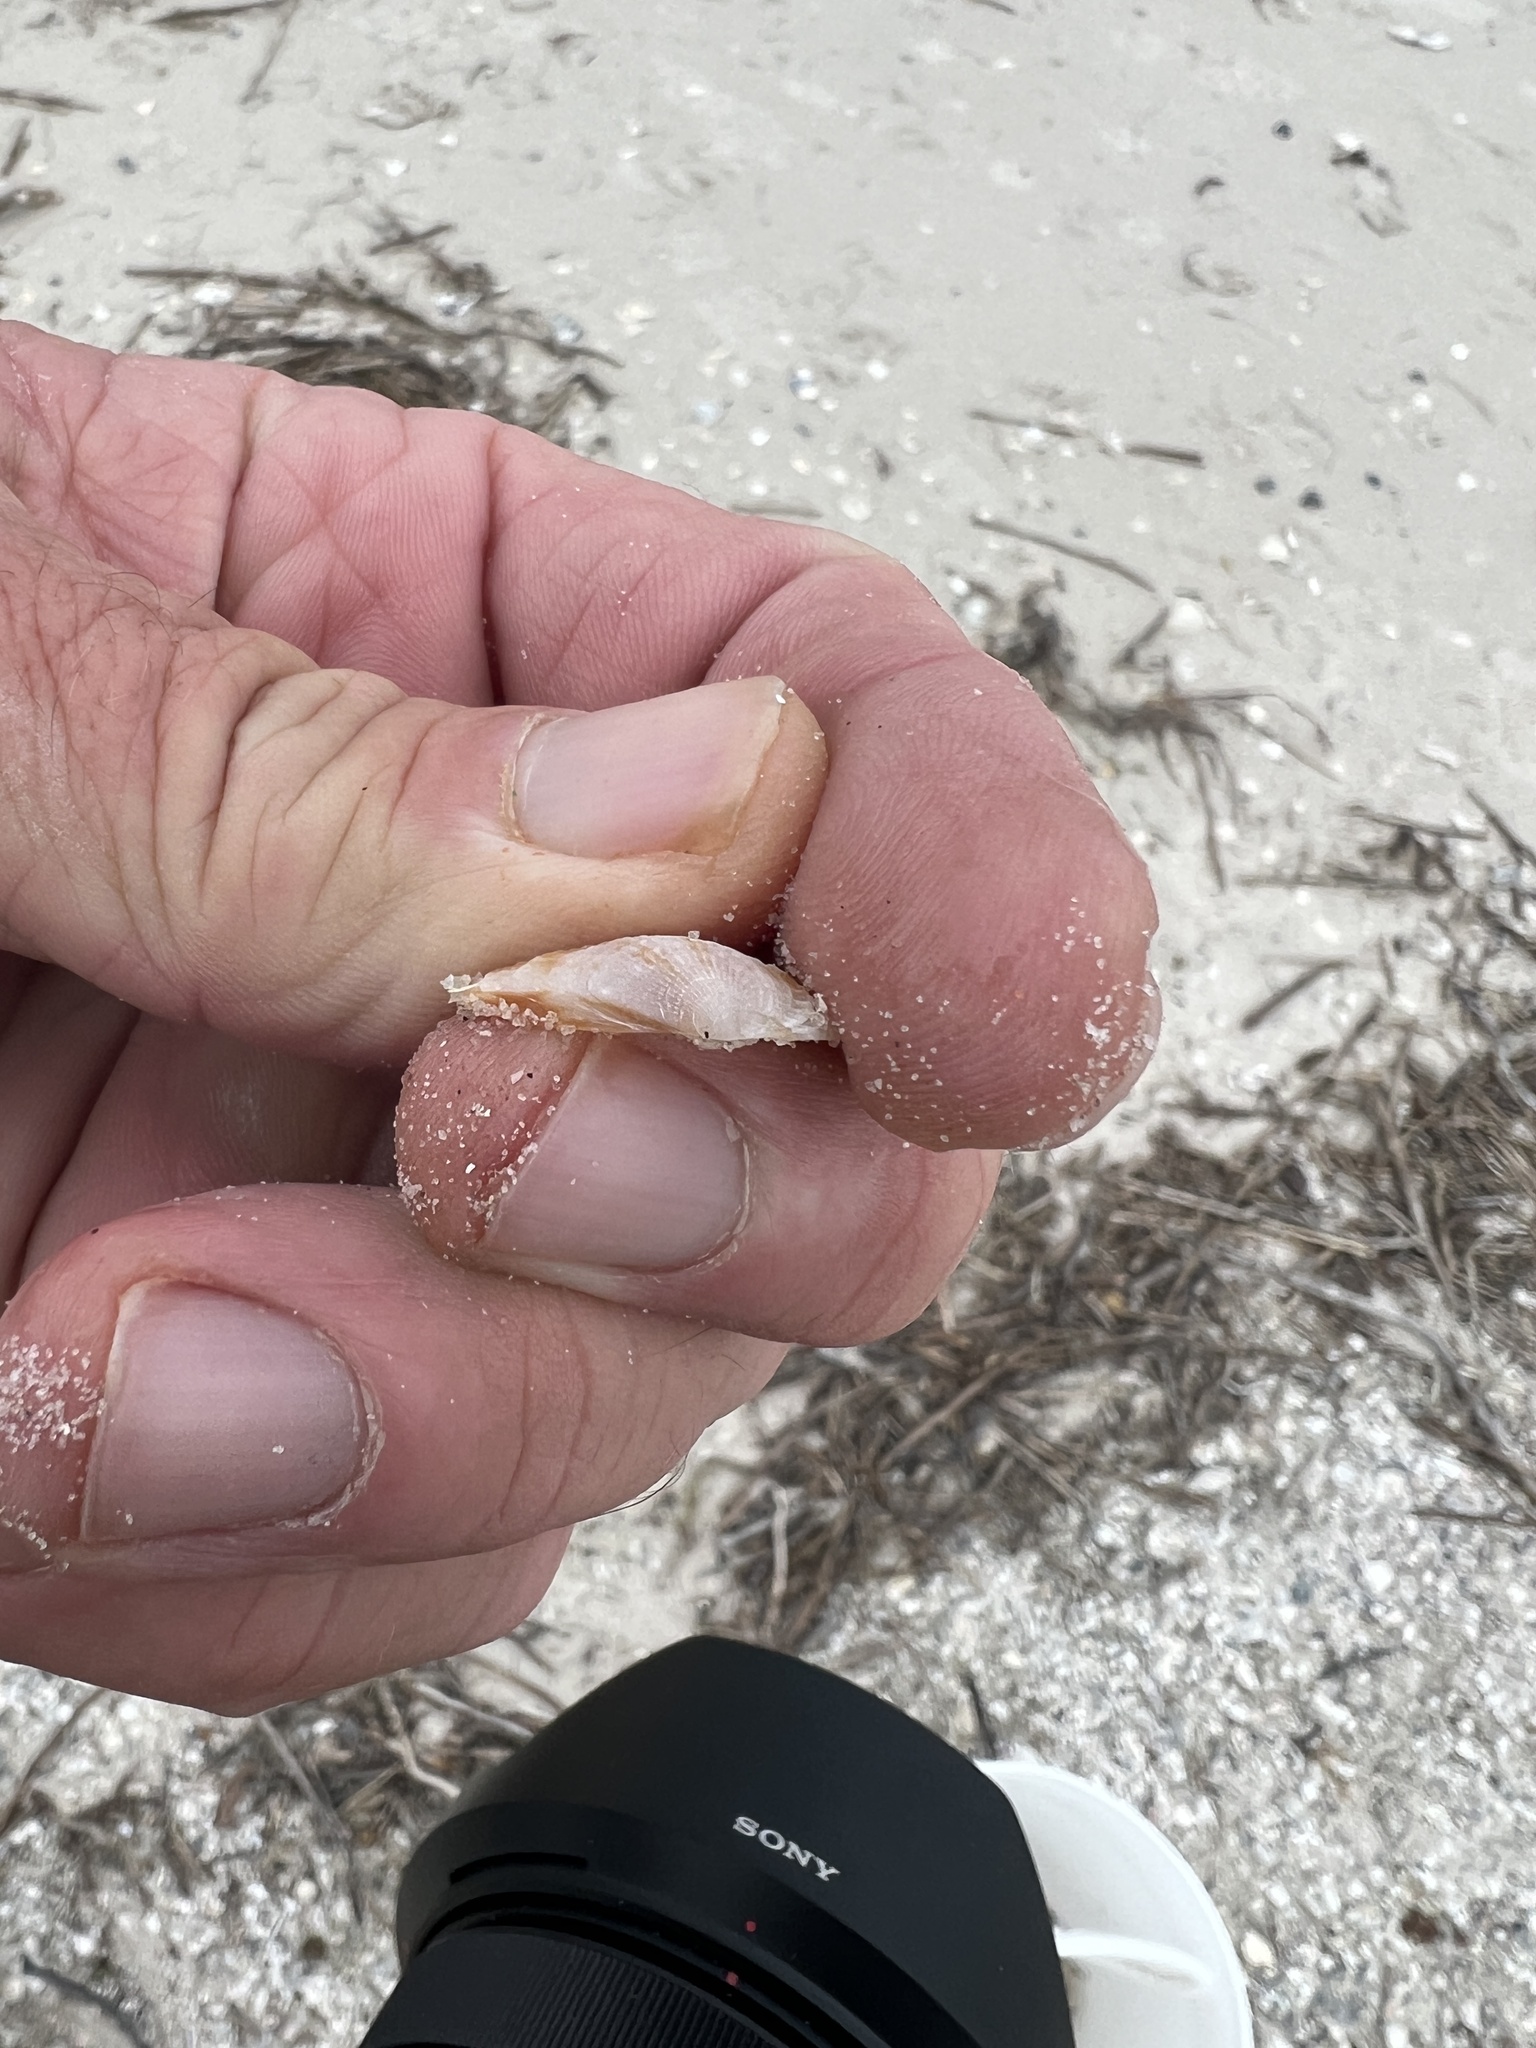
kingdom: Animalia
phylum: Mollusca
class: Bivalvia
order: Venerida
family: Veneridae
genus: Chione
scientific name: Chione elevata
